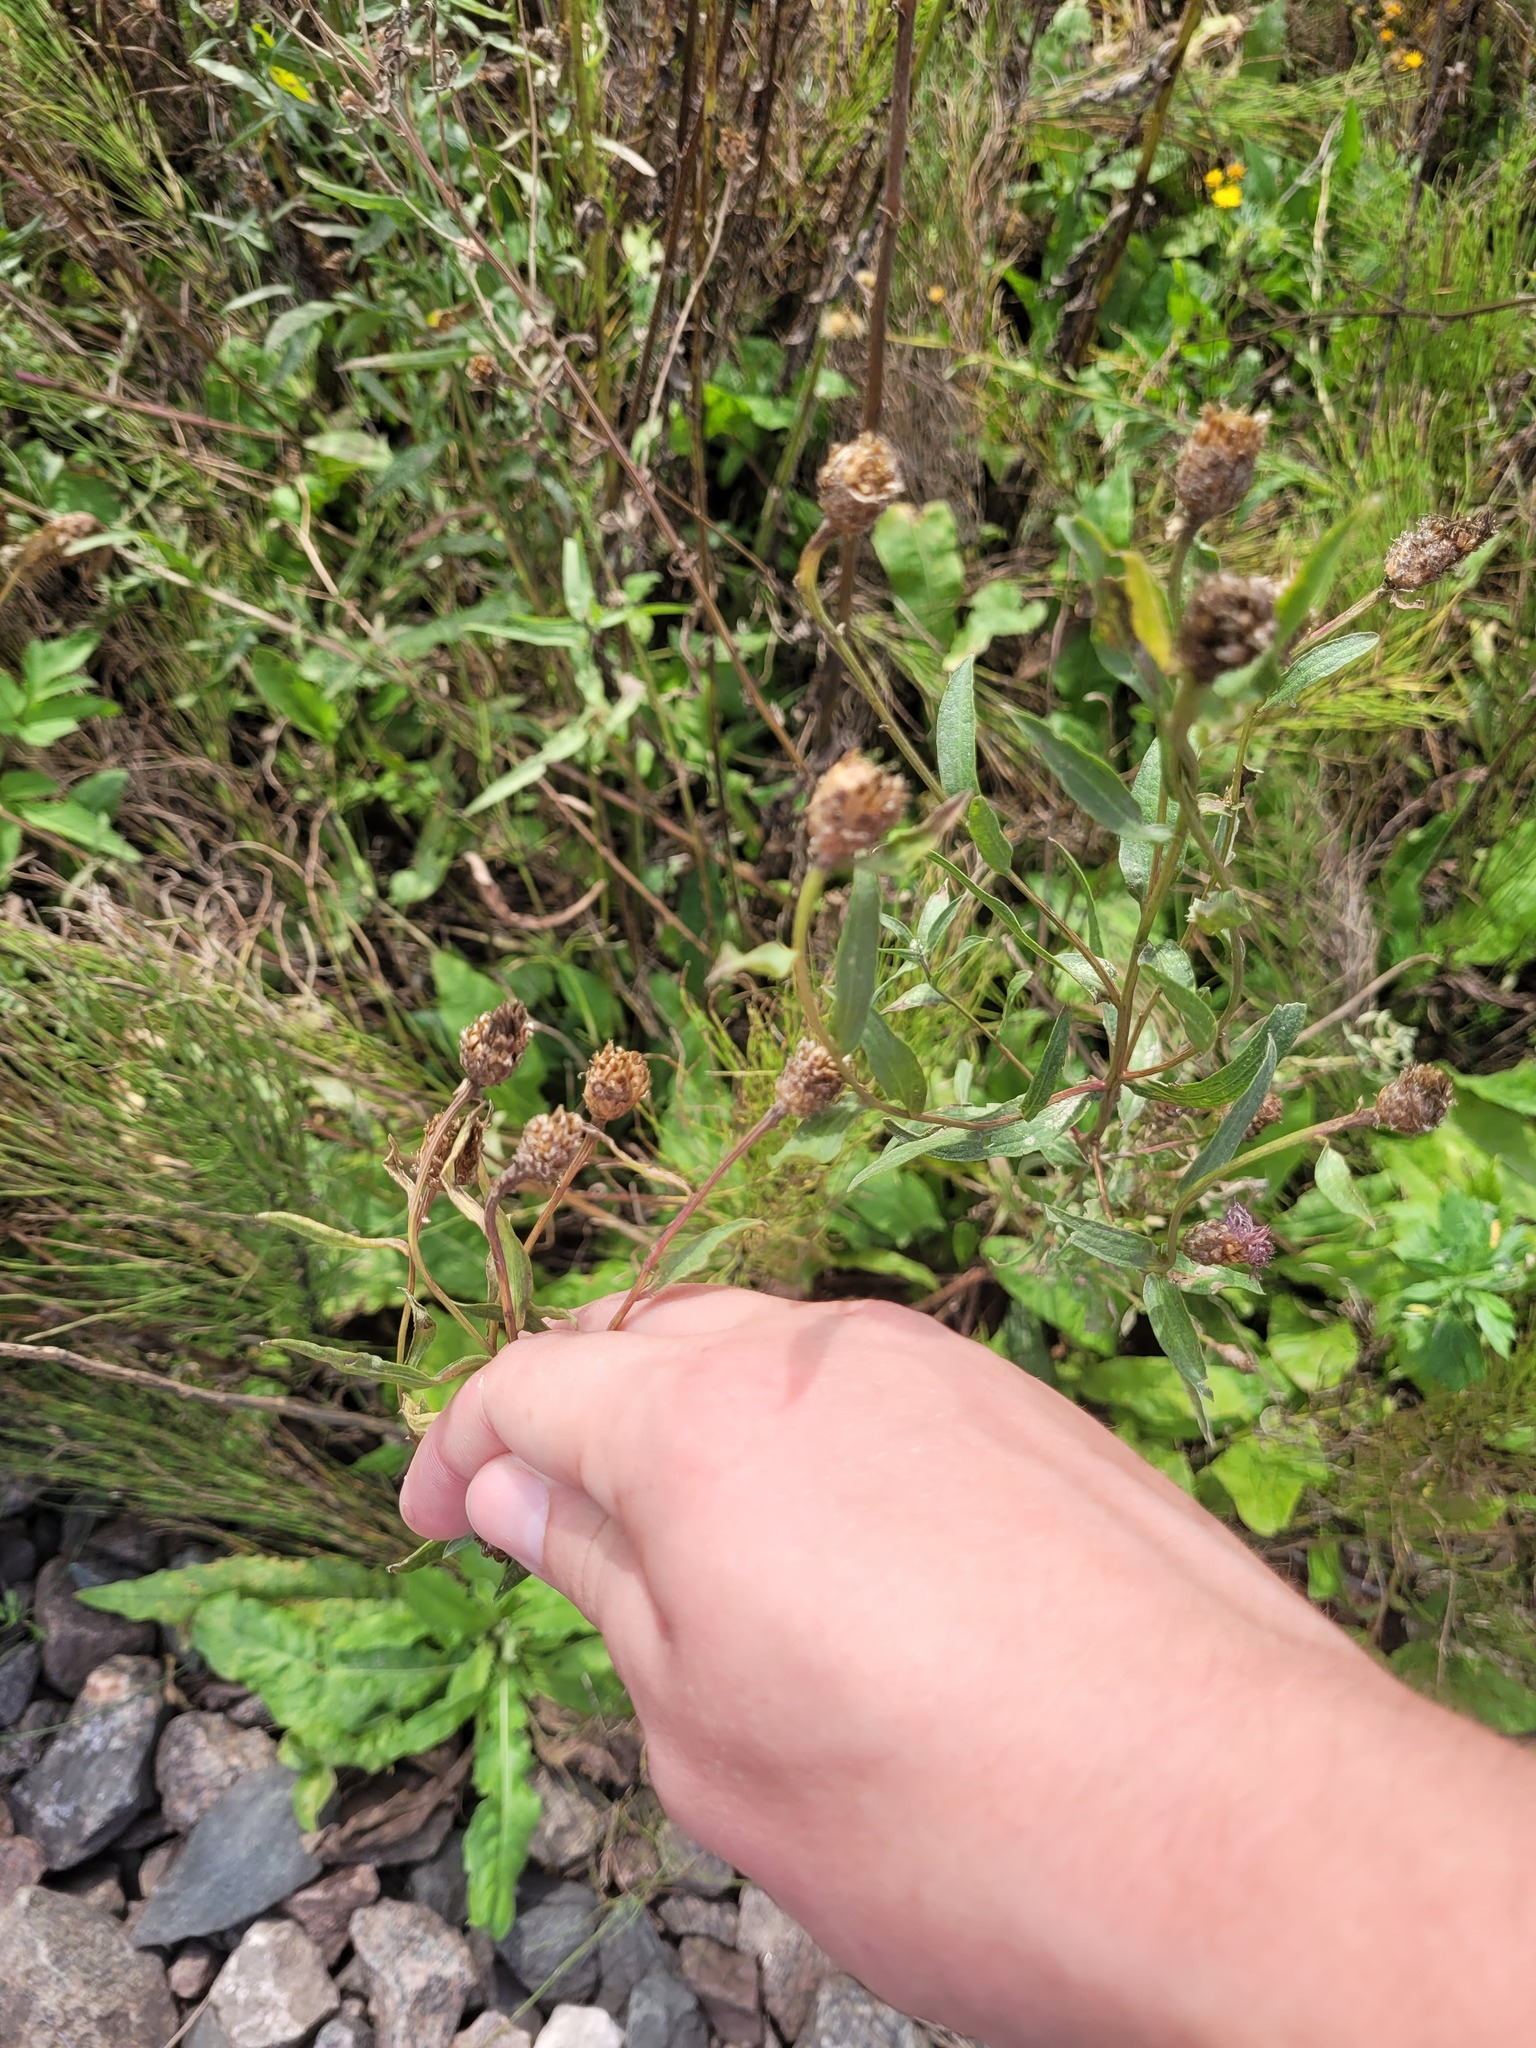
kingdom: Plantae
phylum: Tracheophyta
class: Magnoliopsida
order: Asterales
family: Asteraceae
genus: Centaurea
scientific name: Centaurea jacea
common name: Brown knapweed
